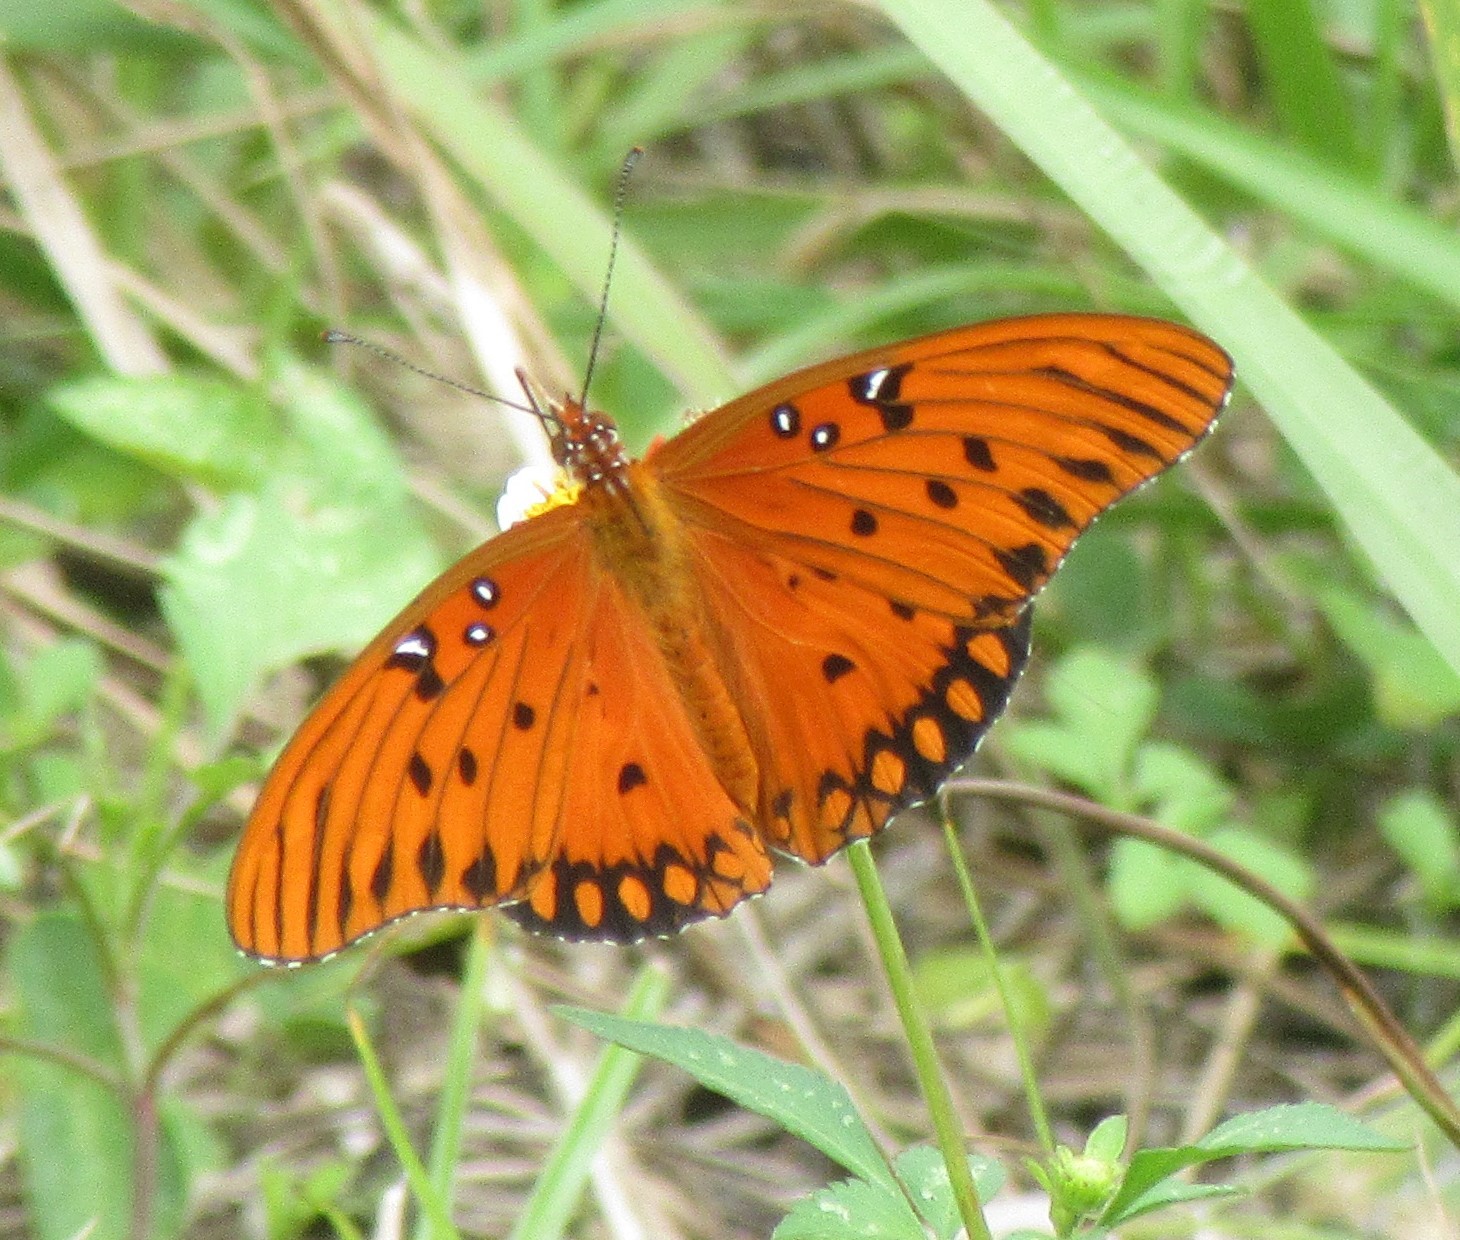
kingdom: Animalia
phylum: Arthropoda
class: Insecta
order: Lepidoptera
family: Nymphalidae
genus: Dione
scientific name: Dione vanillae
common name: Gulf fritillary
